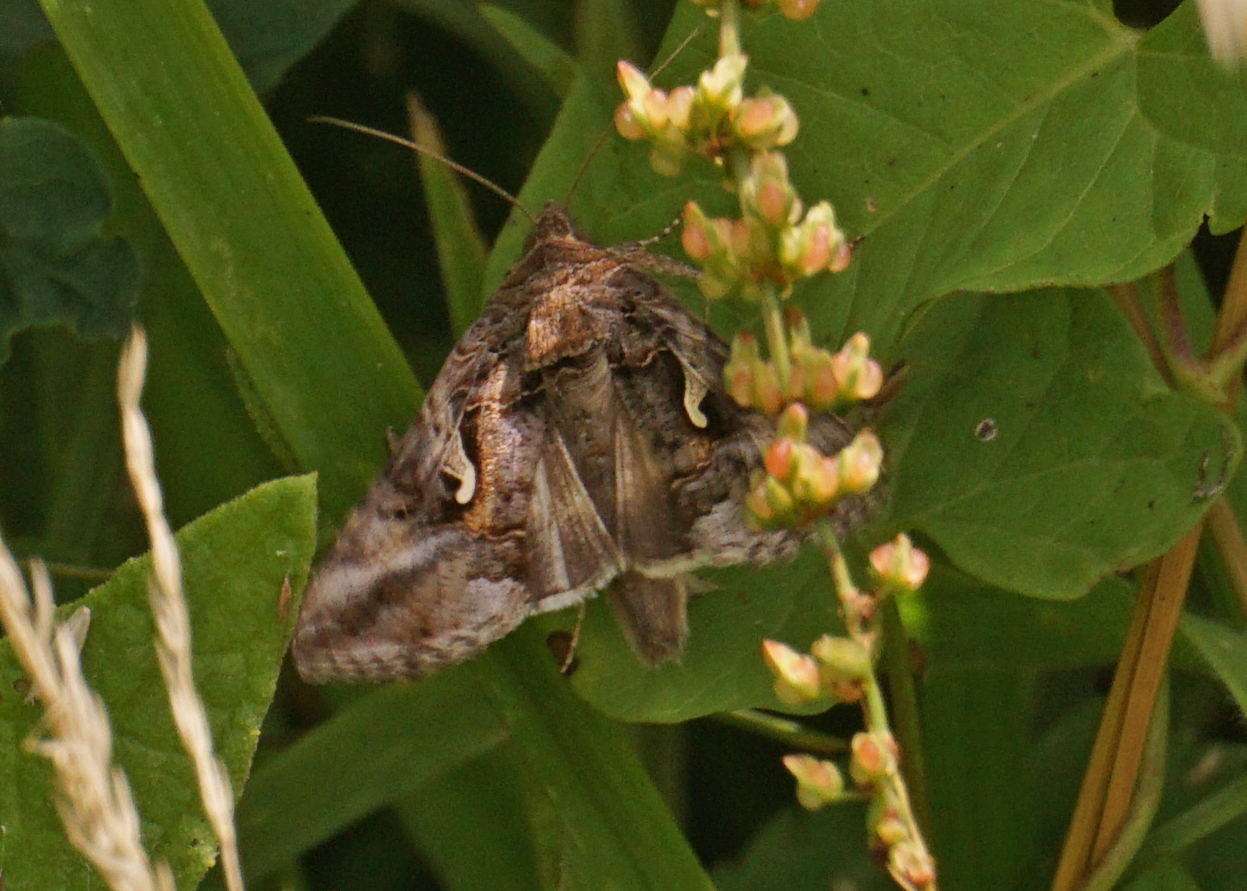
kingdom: Animalia
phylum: Arthropoda
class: Insecta
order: Lepidoptera
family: Noctuidae
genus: Autographa
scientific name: Autographa gamma
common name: Silver y
